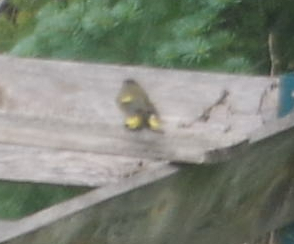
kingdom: Animalia
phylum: Chordata
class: Aves
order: Passeriformes
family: Parulidae
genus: Setophaga
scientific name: Setophaga ruticilla
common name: American redstart
